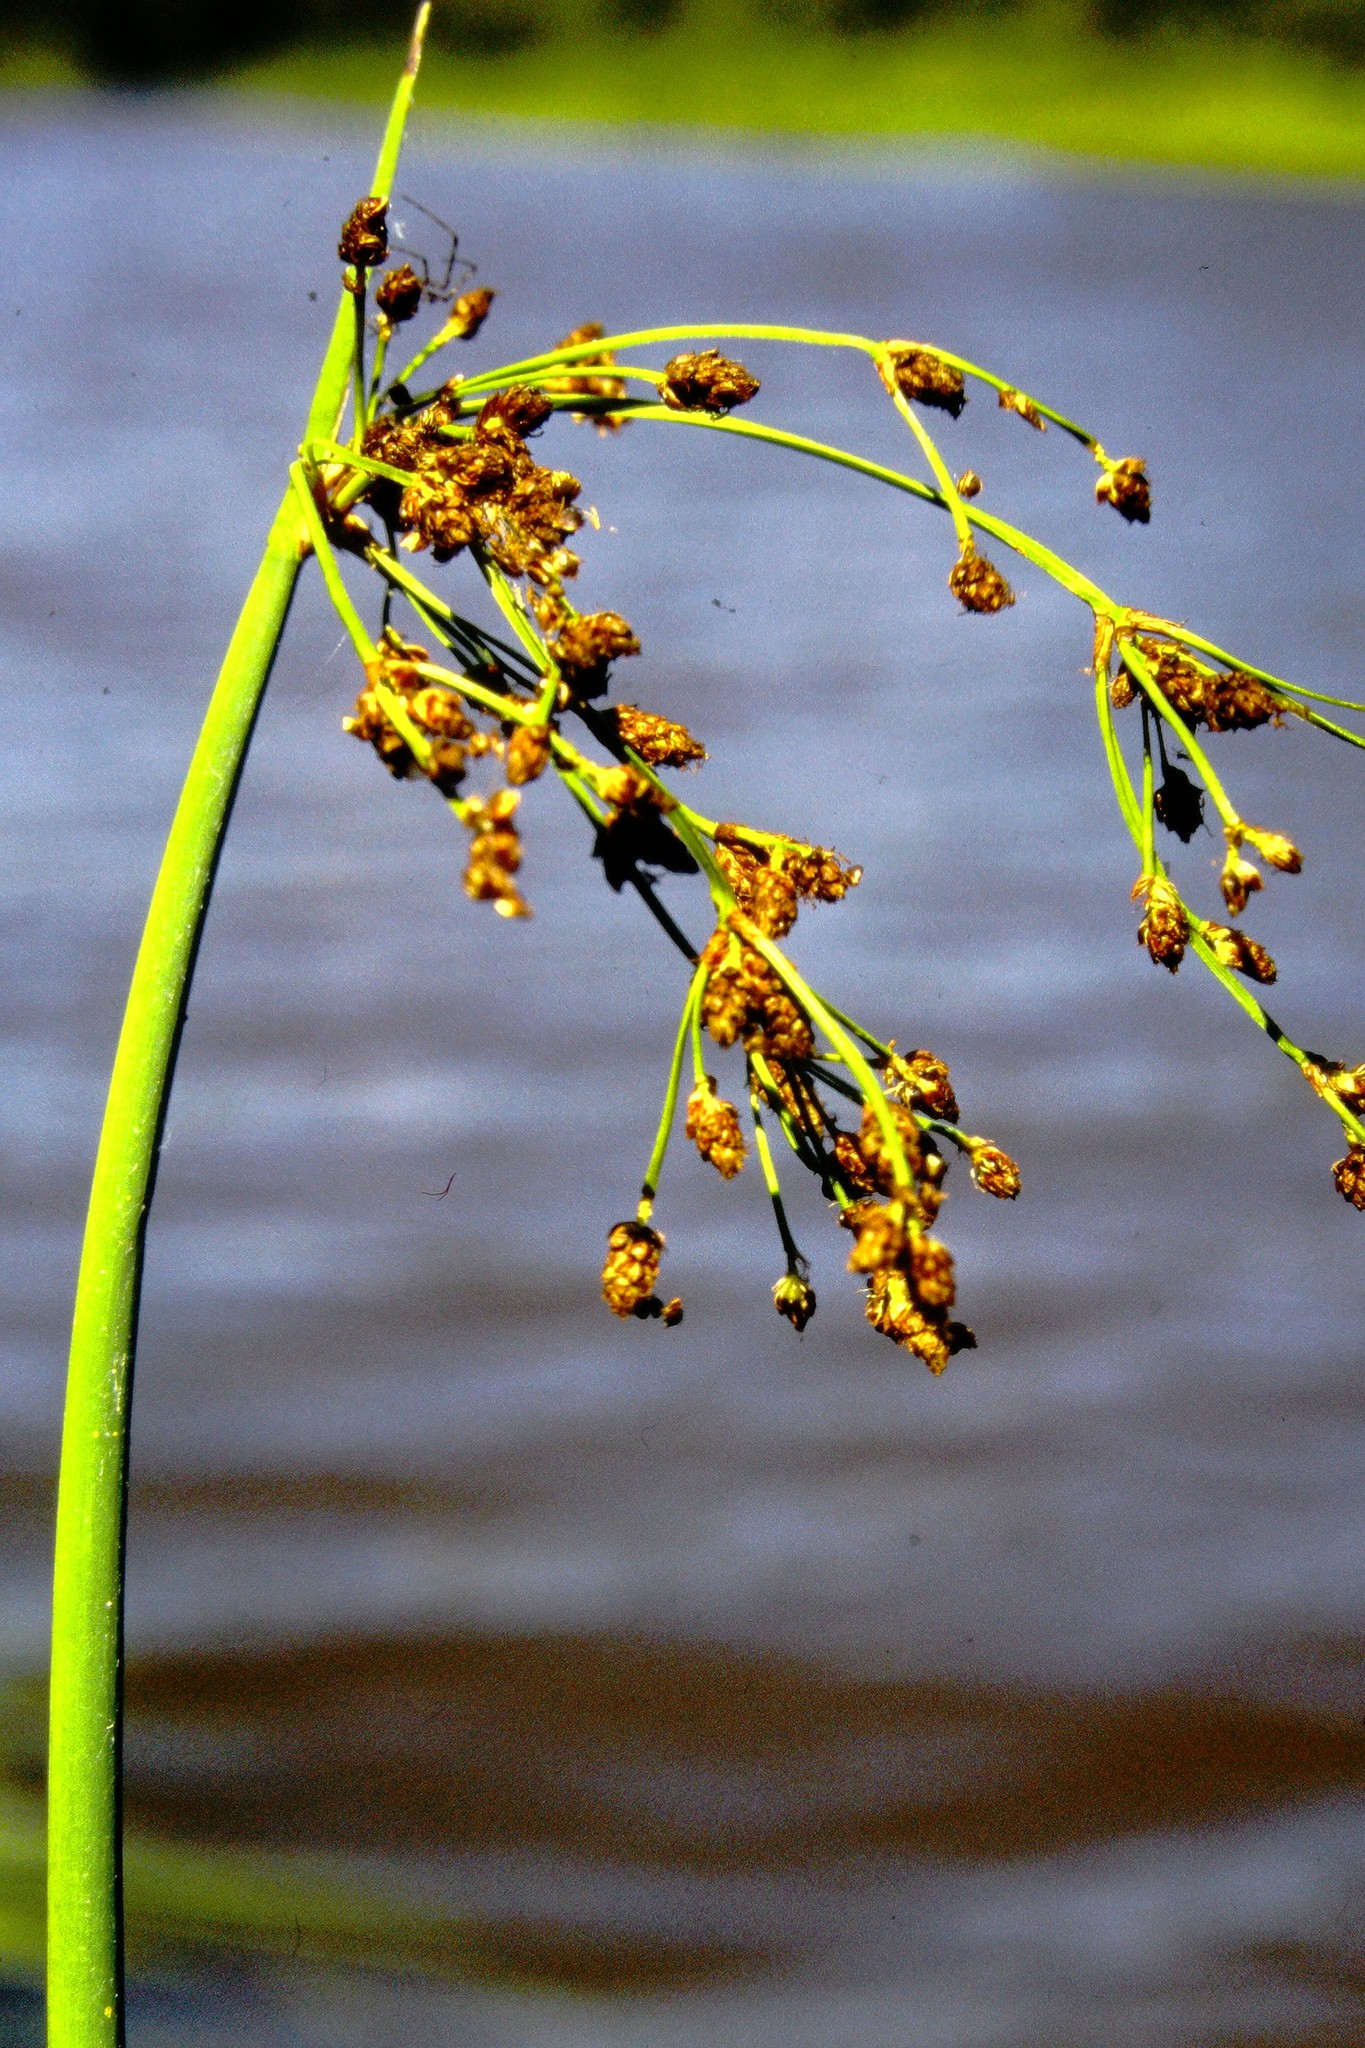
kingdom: Plantae
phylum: Tracheophyta
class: Liliopsida
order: Poales
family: Cyperaceae
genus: Schoenoplectus
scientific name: Schoenoplectus tabernaemontani
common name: Grey club-rush
